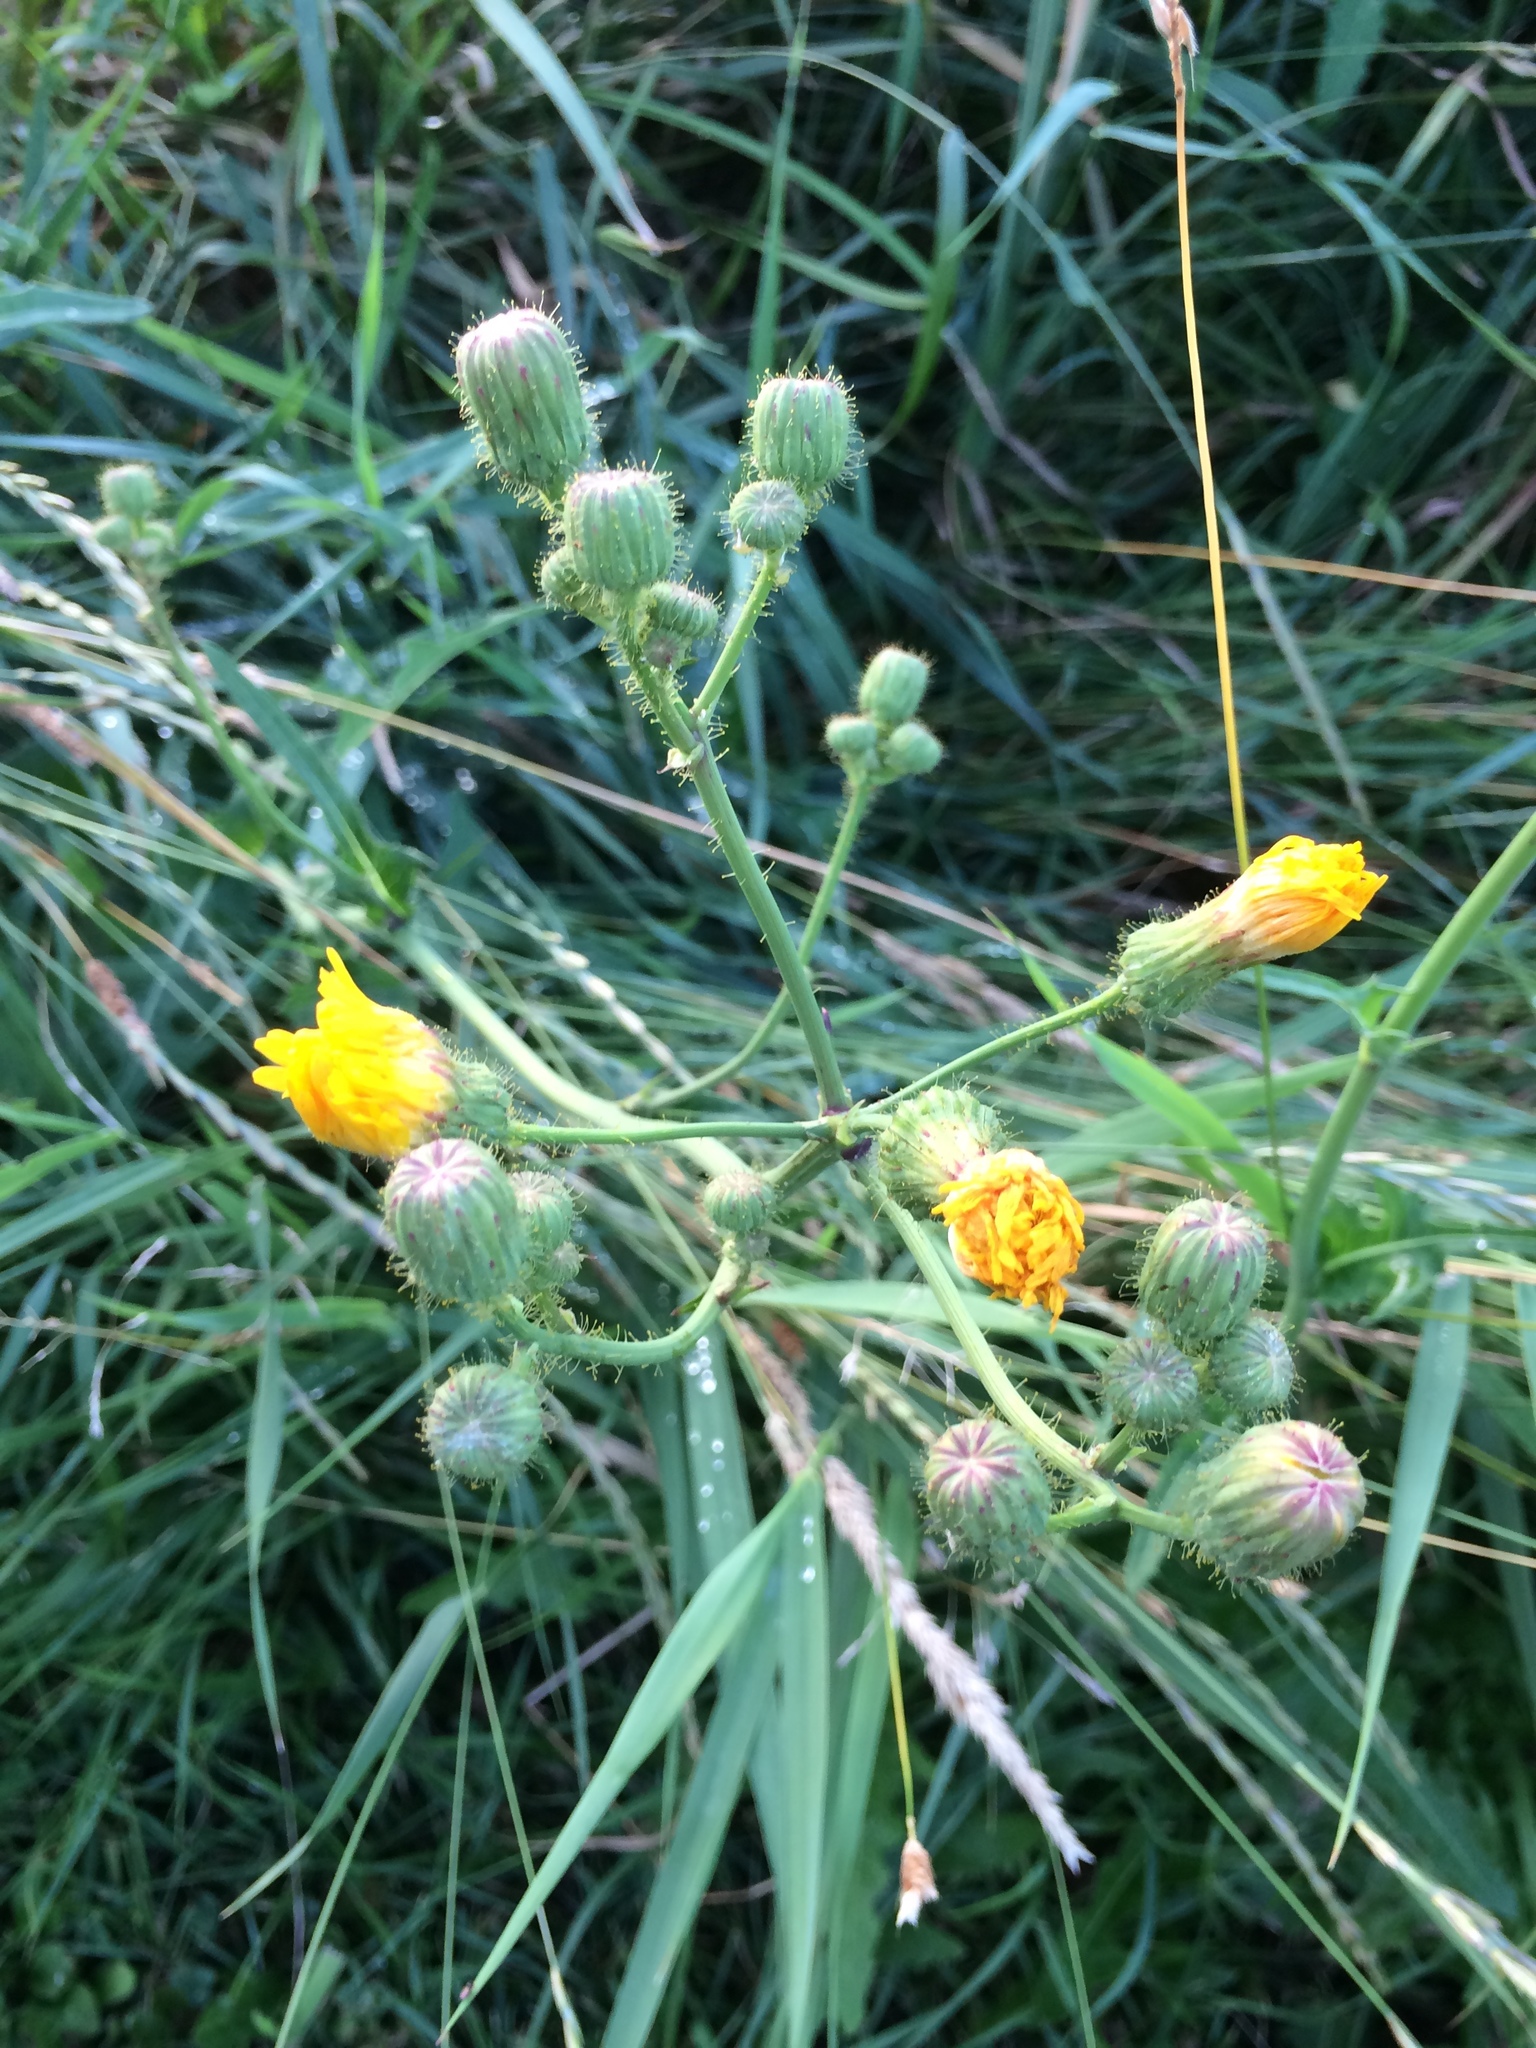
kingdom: Plantae
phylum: Tracheophyta
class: Magnoliopsida
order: Asterales
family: Asteraceae
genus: Sonchus
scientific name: Sonchus arvensis
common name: Perennial sow-thistle
